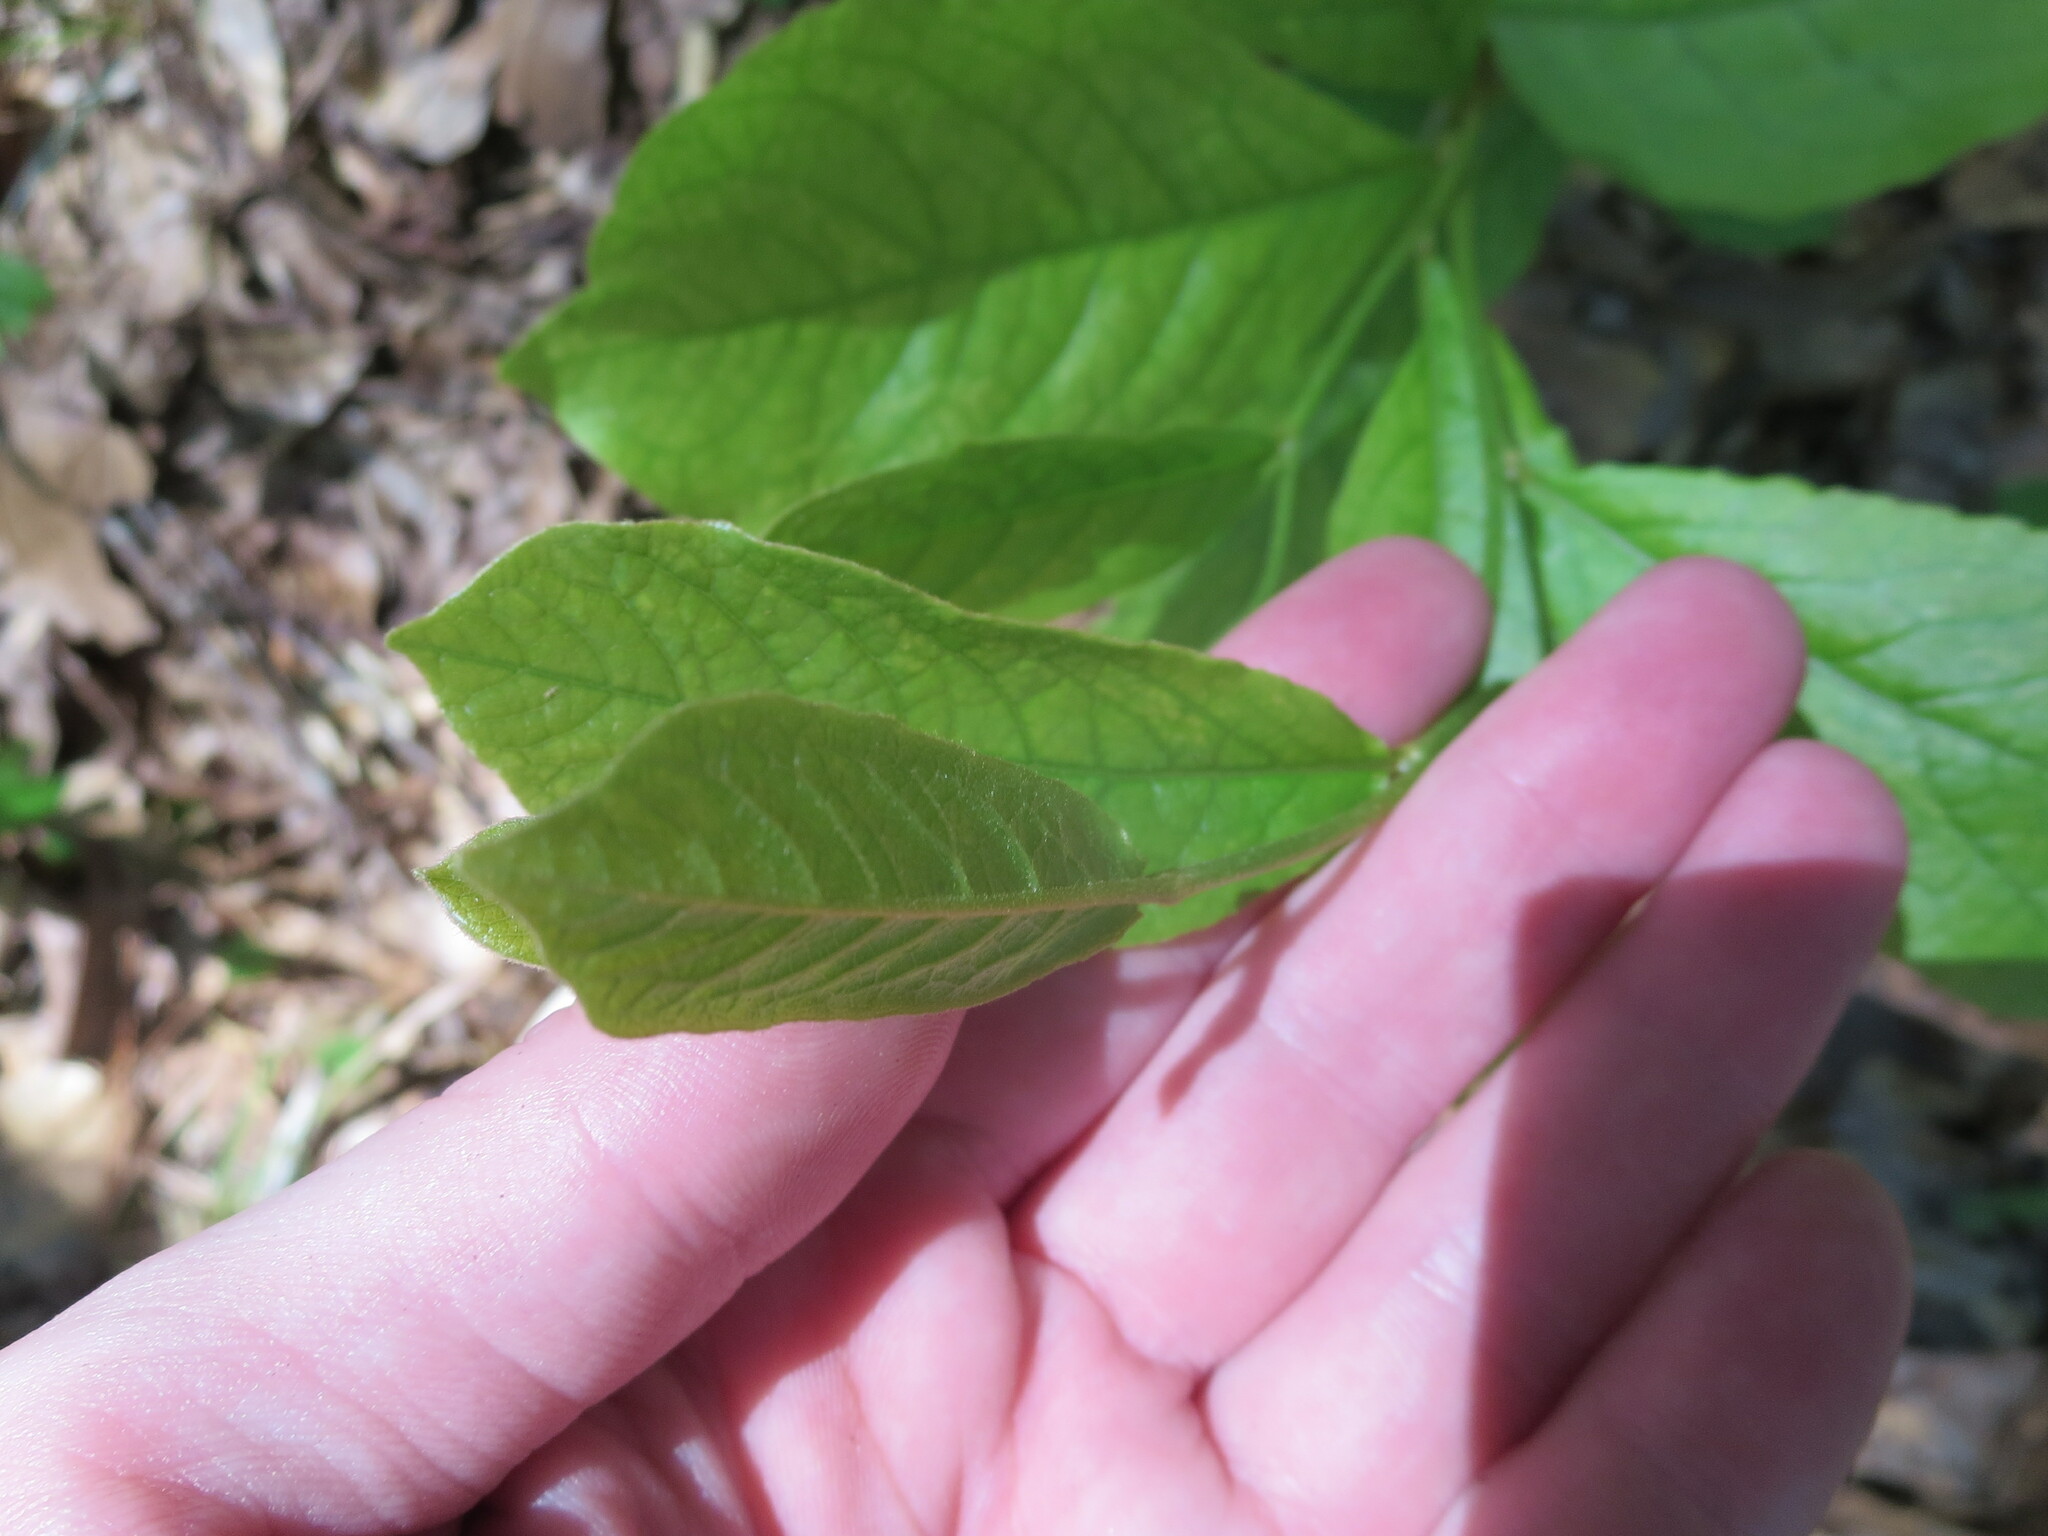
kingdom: Plantae
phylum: Tracheophyta
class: Magnoliopsida
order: Magnoliales
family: Annonaceae
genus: Asimina
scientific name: Asimina parviflora
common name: Dwarf pawpaw
